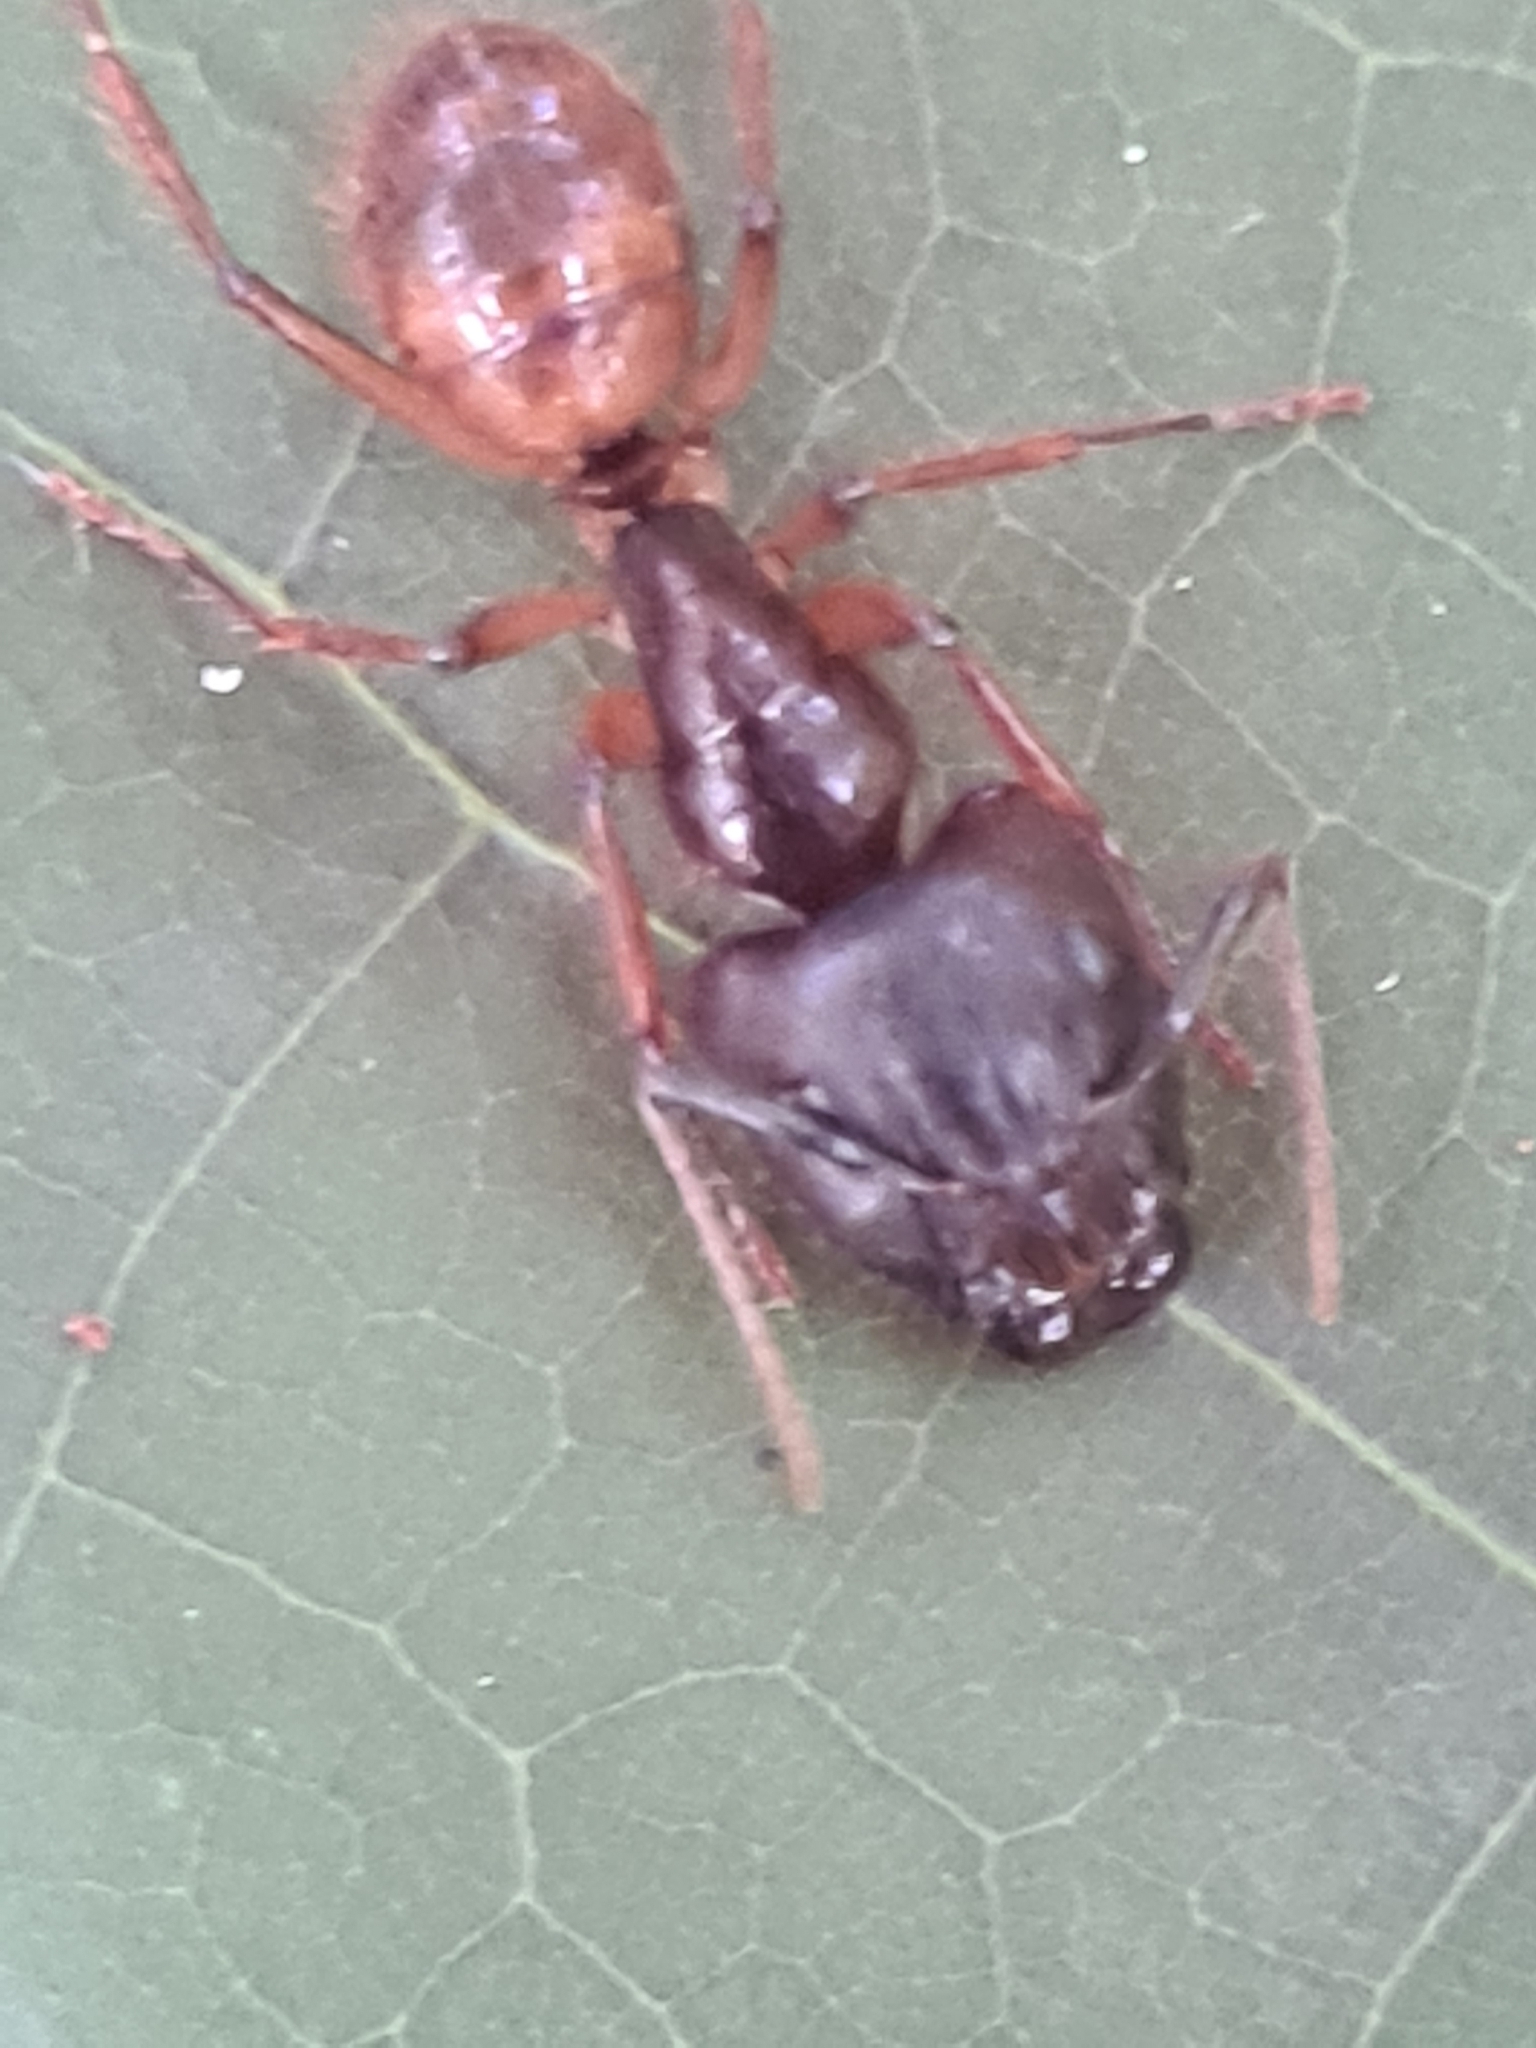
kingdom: Animalia
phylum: Arthropoda
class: Insecta
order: Hymenoptera
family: Formicidae
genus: Camponotus
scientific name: Camponotus atriceps
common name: Florida carpenter ant
